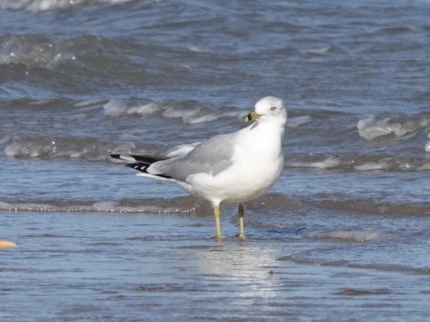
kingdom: Animalia
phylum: Chordata
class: Aves
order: Charadriiformes
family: Laridae
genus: Larus
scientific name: Larus delawarensis
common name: Ring-billed gull
